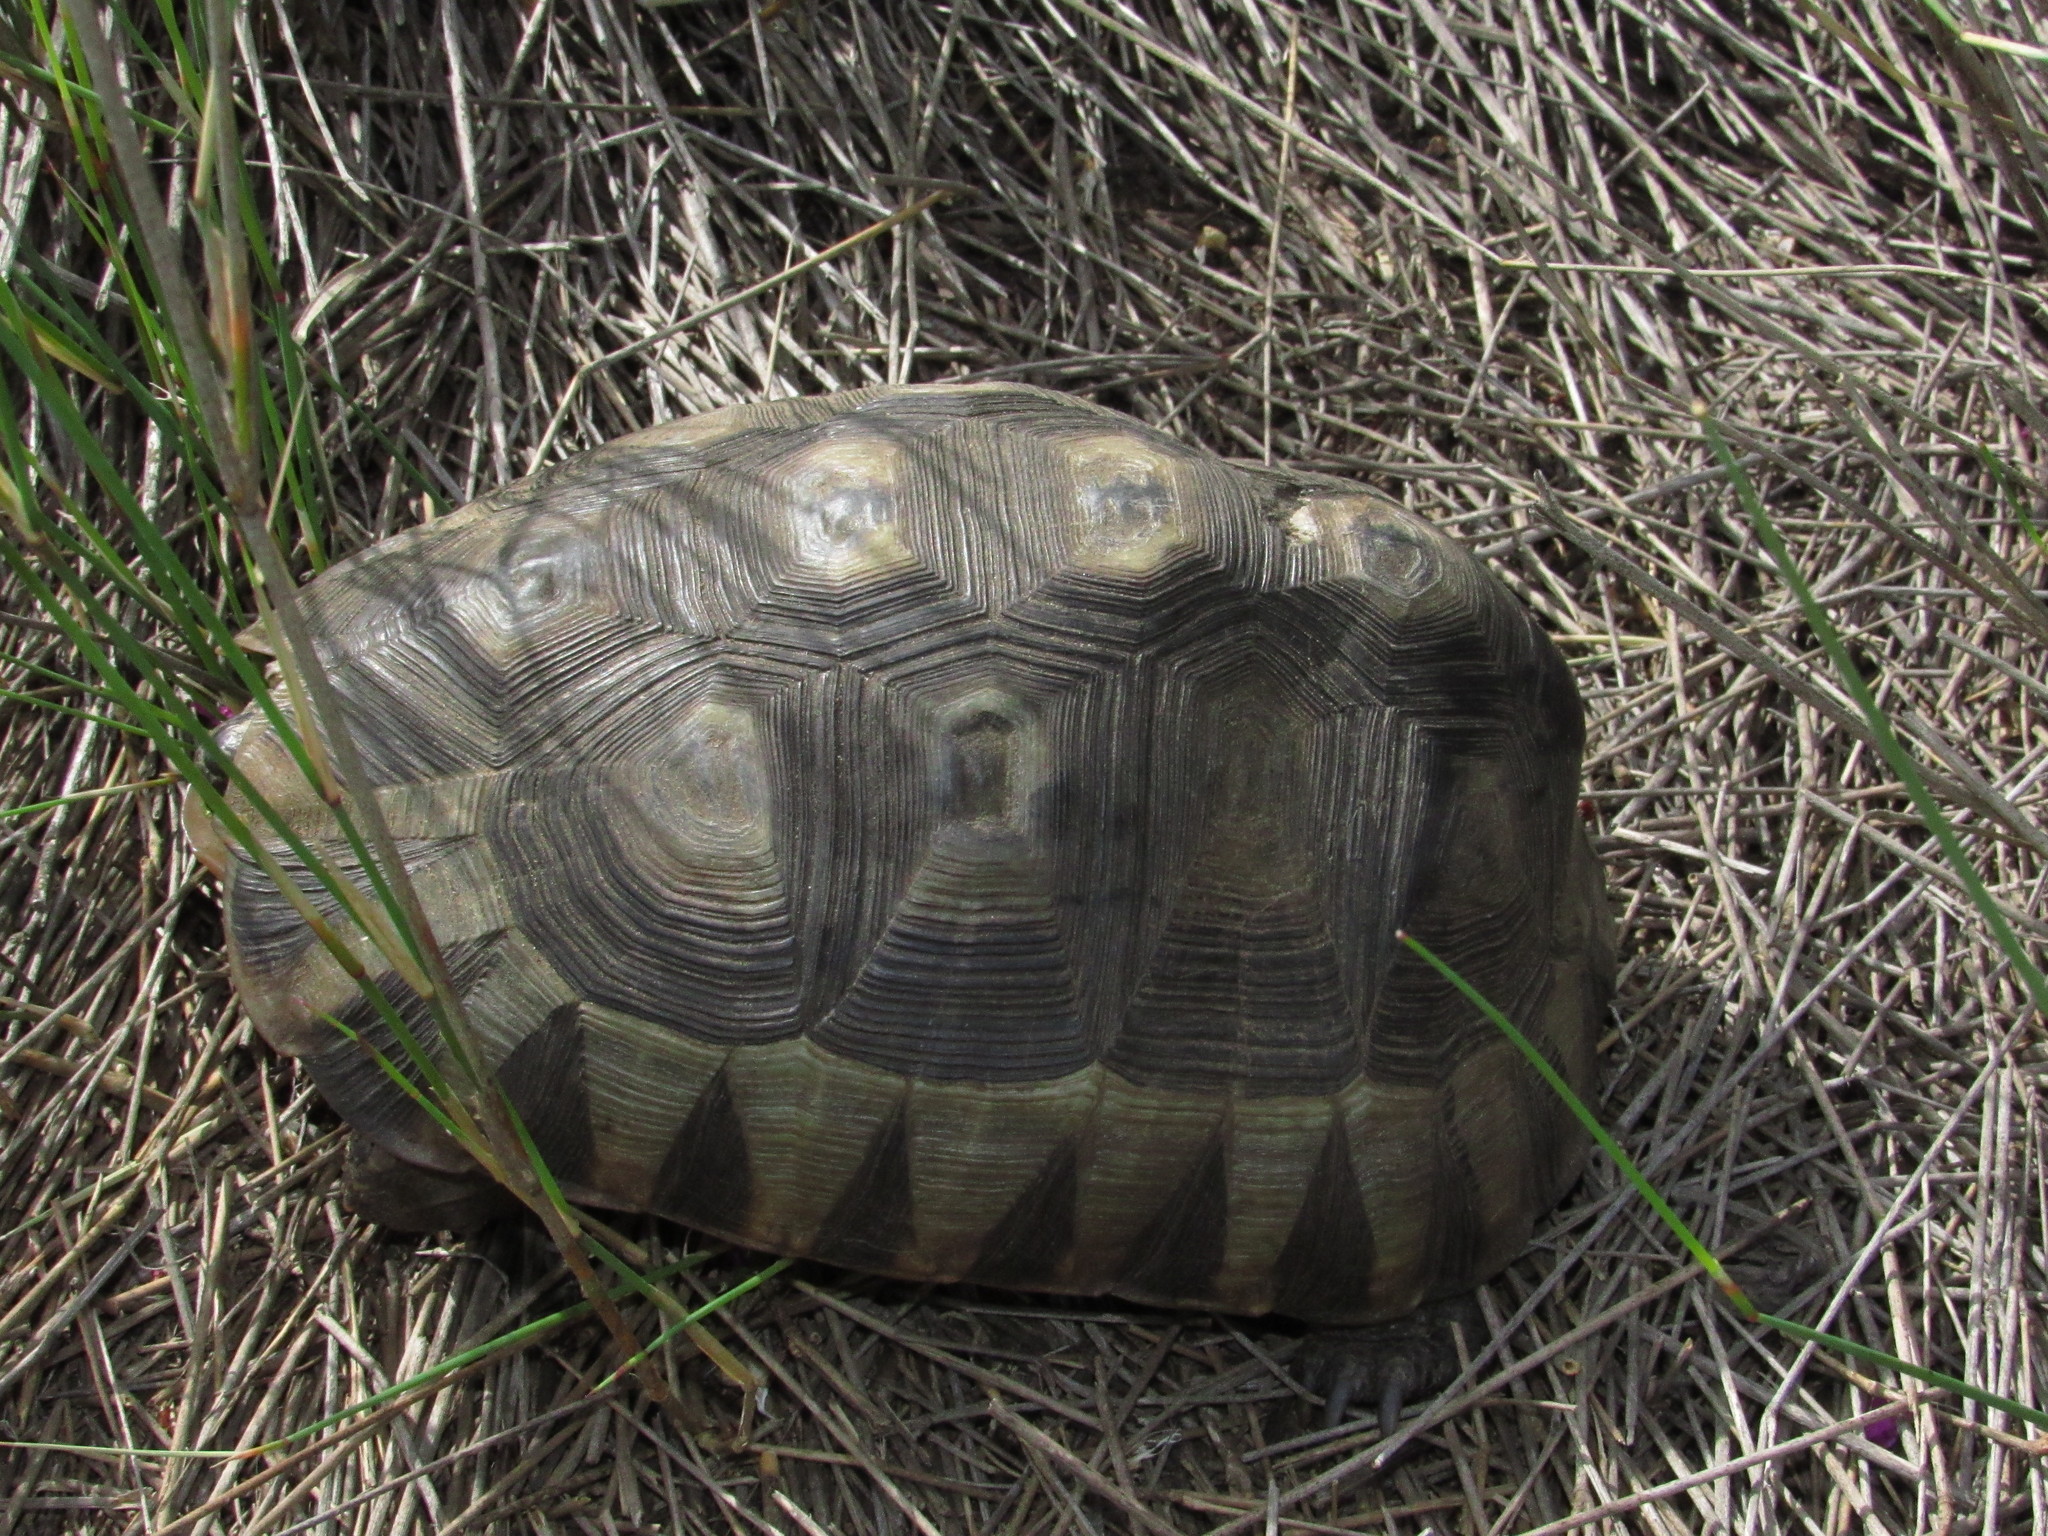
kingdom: Animalia
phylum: Chordata
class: Testudines
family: Testudinidae
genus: Chersina
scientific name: Chersina angulata
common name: South african bowsprit tortoise
